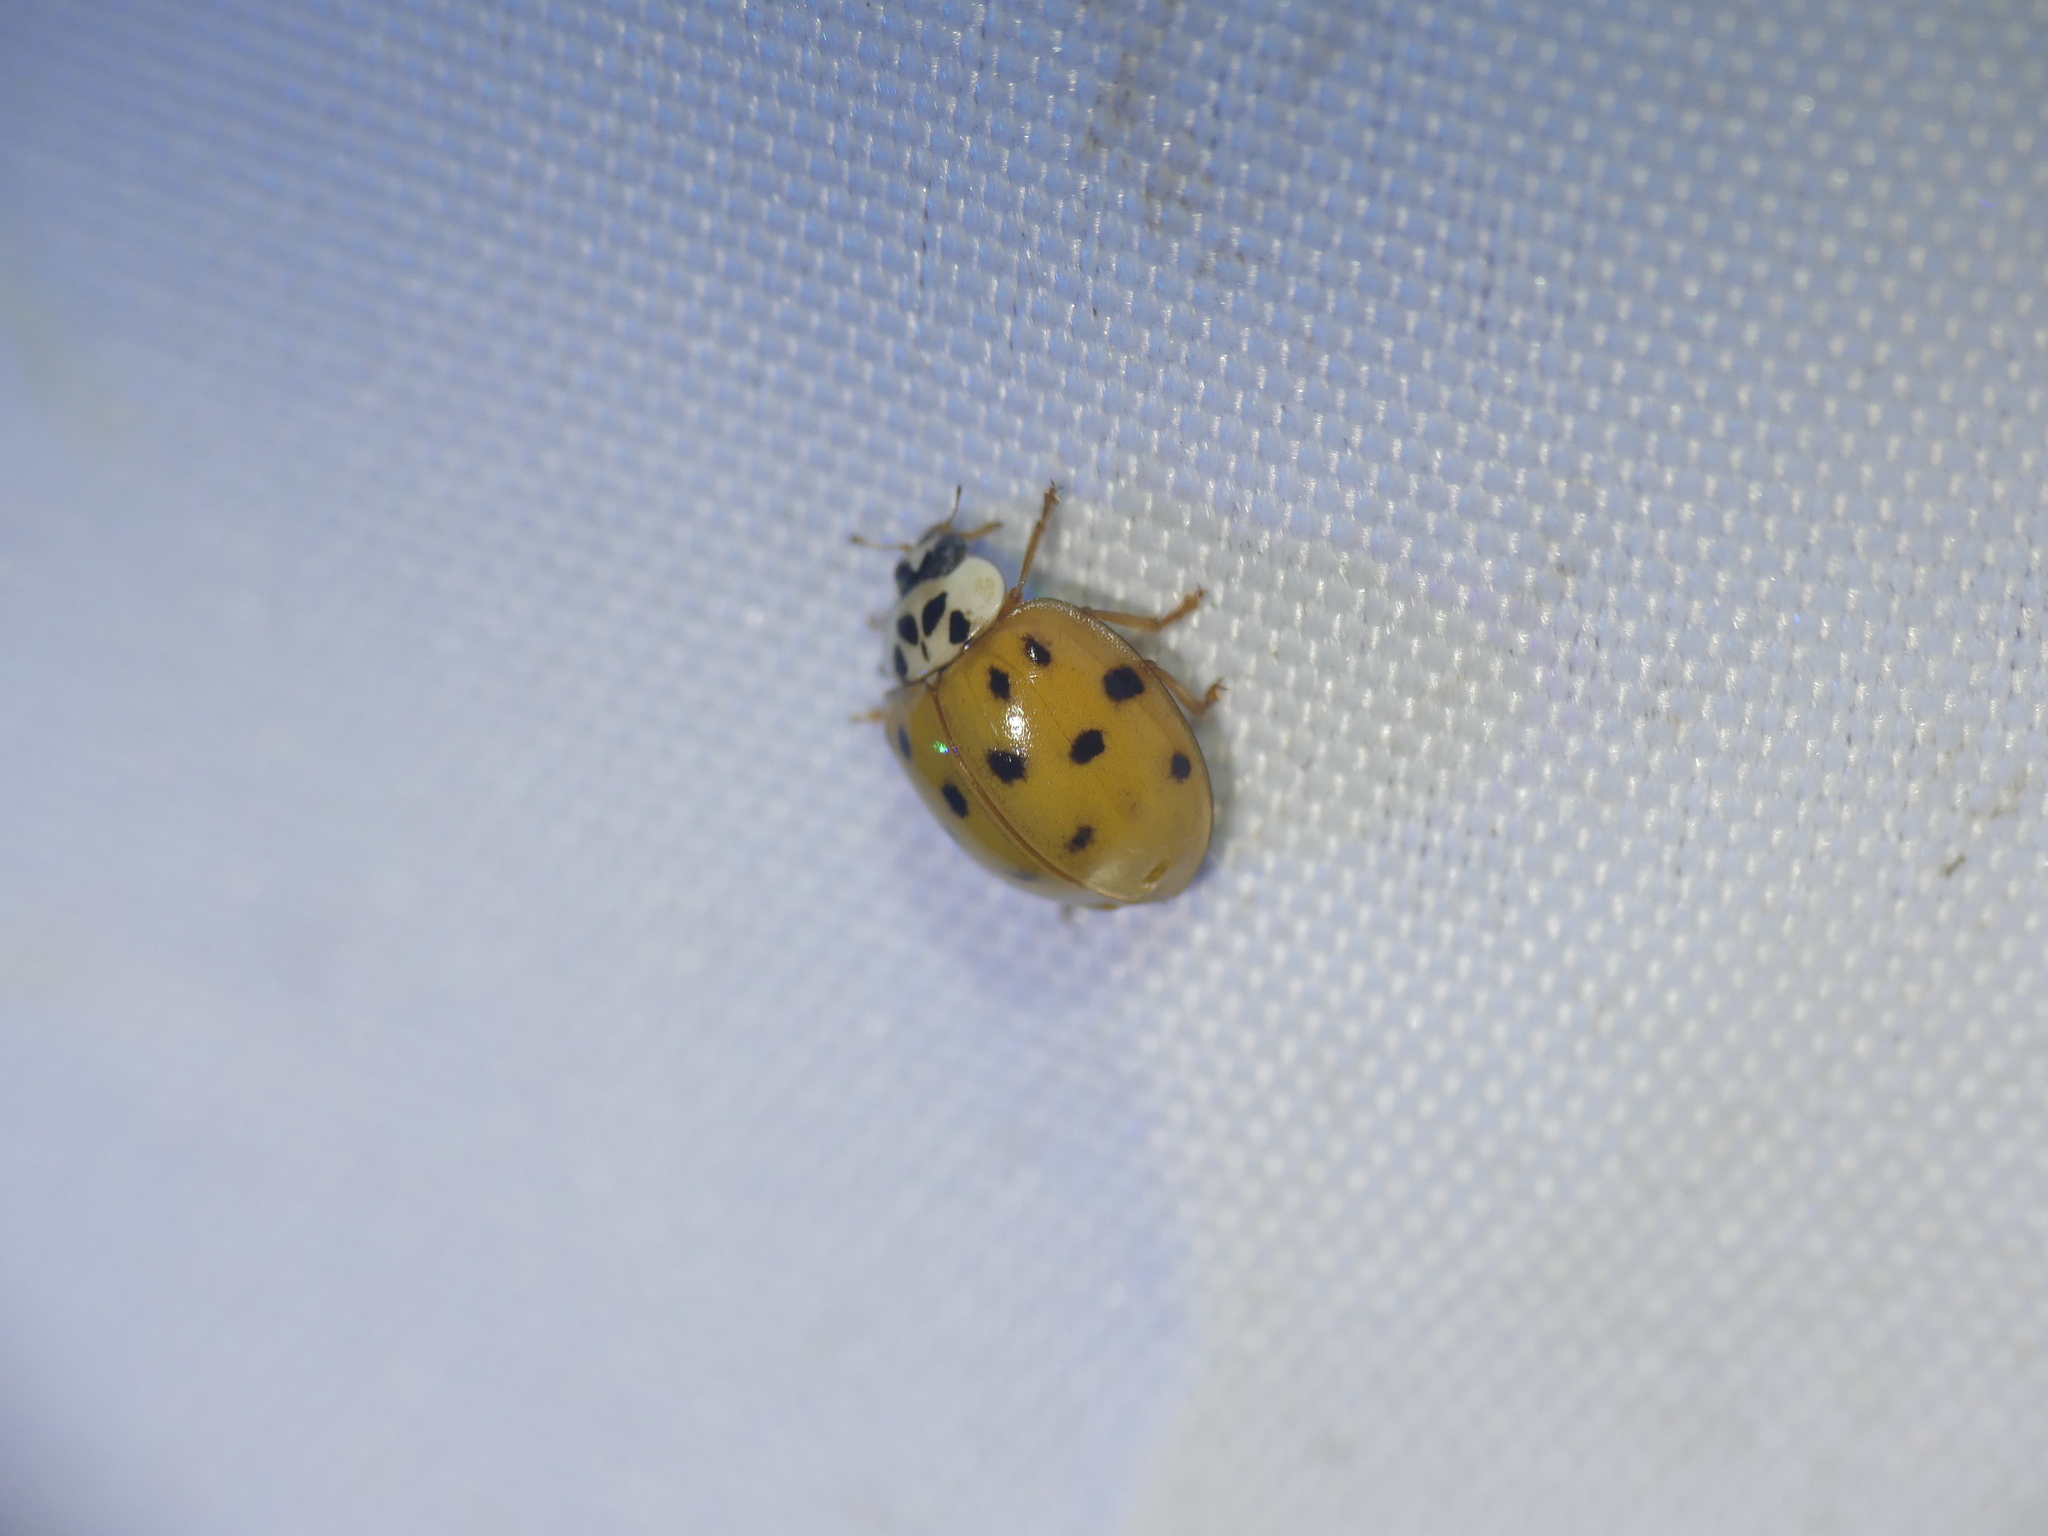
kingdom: Animalia
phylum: Arthropoda
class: Insecta
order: Coleoptera
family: Coccinellidae
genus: Harmonia
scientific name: Harmonia axyridis
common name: Harlequin ladybird
